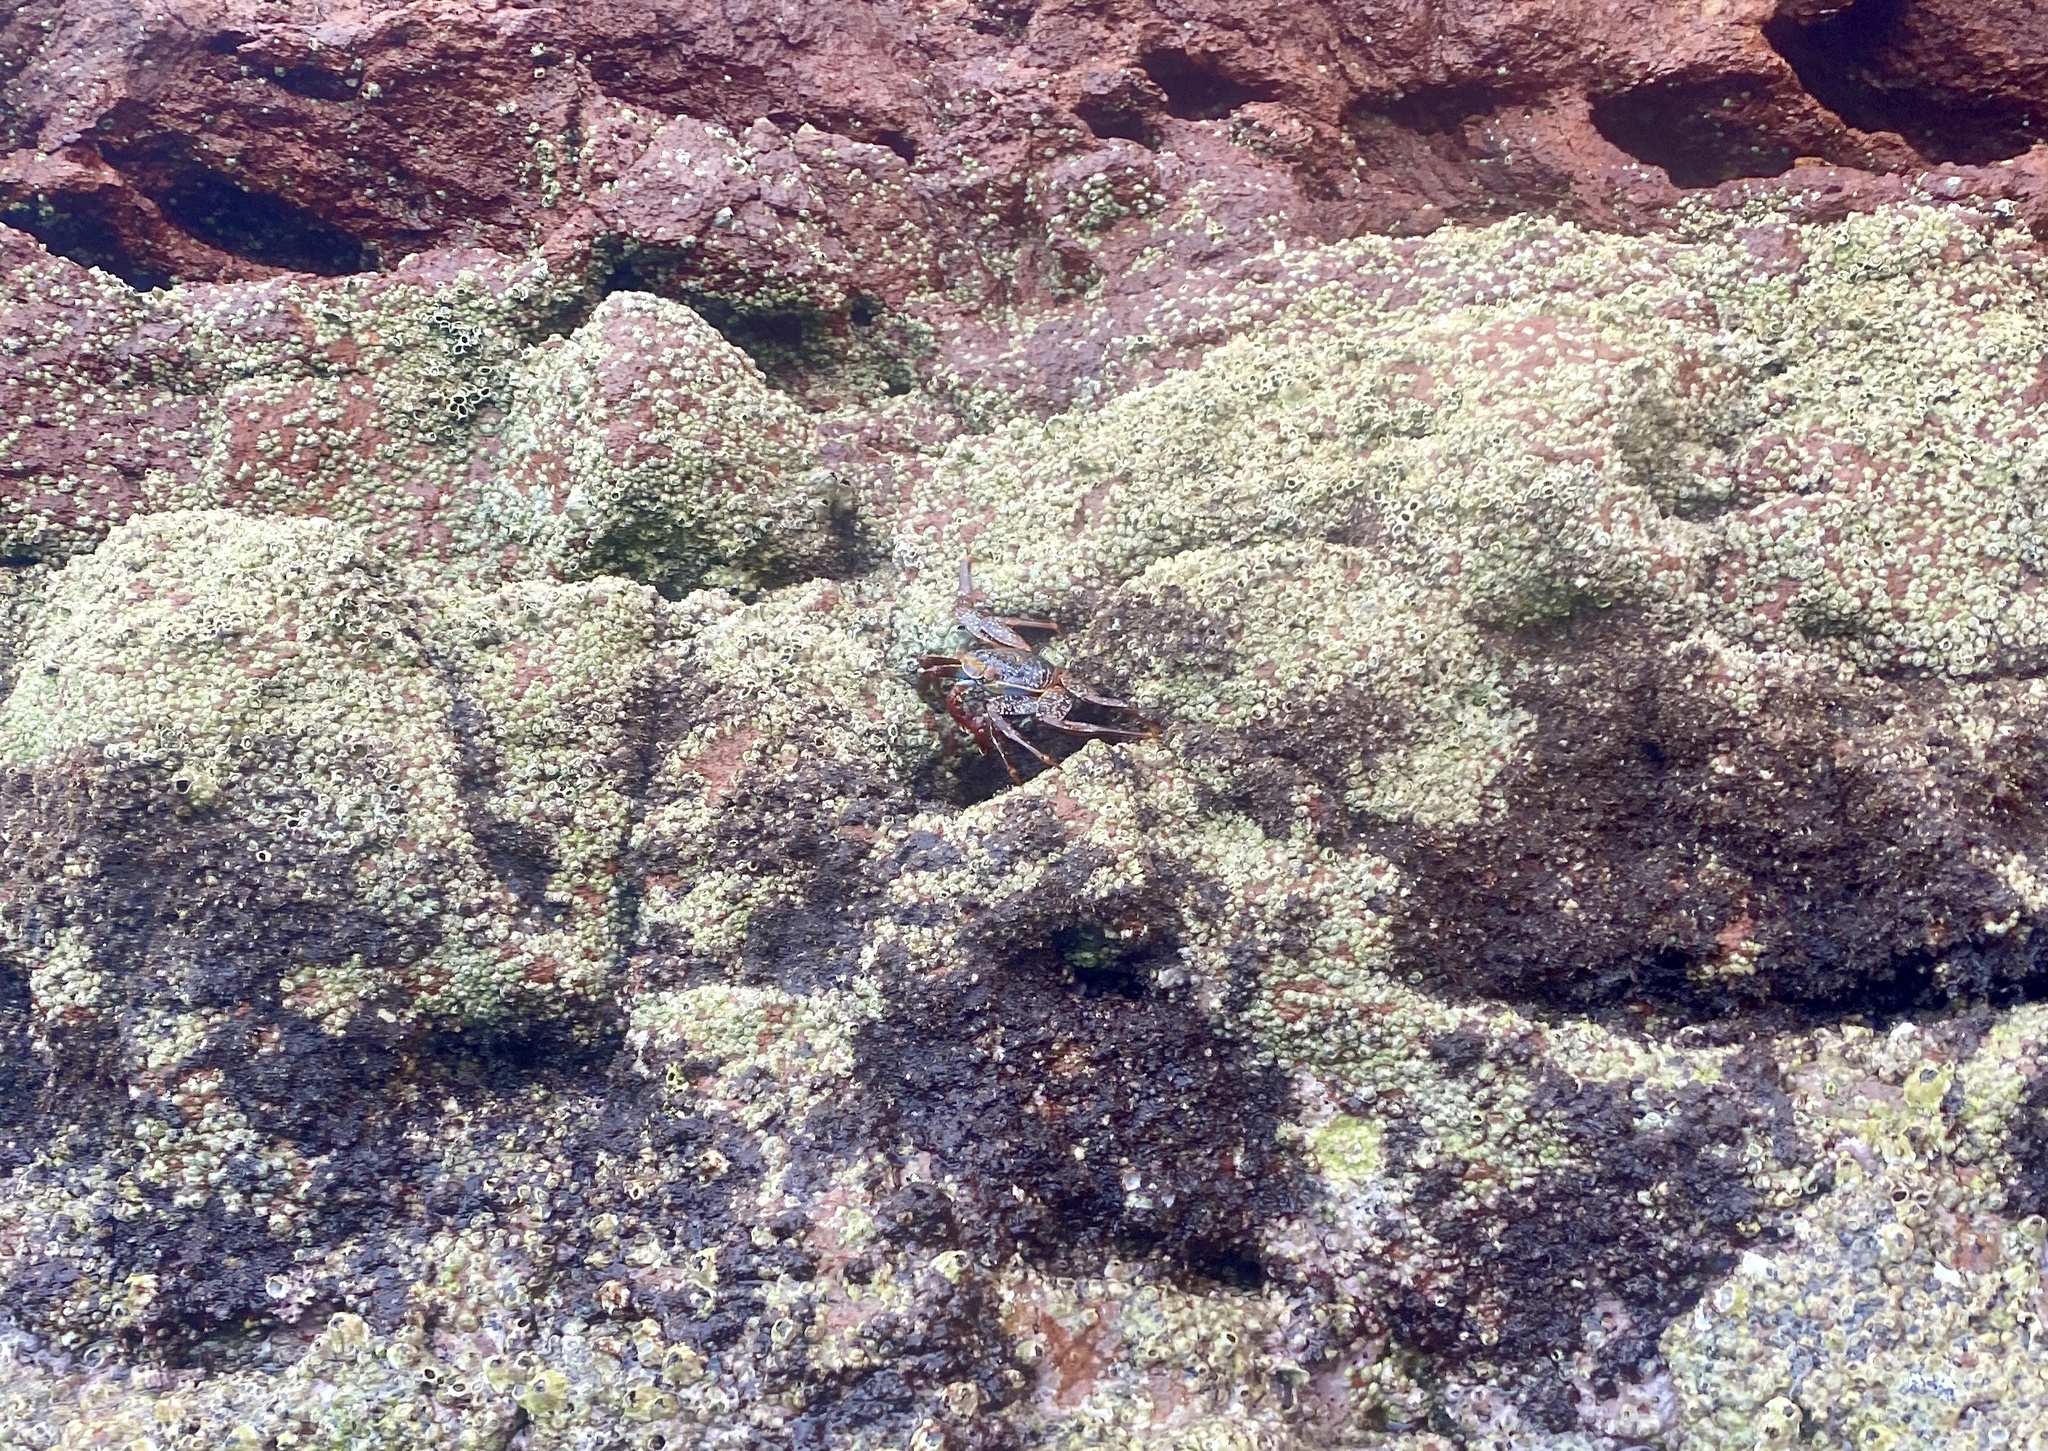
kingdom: Animalia
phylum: Arthropoda
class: Malacostraca
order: Decapoda
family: Grapsidae
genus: Grapsus
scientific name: Grapsus grapsus
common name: Sally lightfoot
